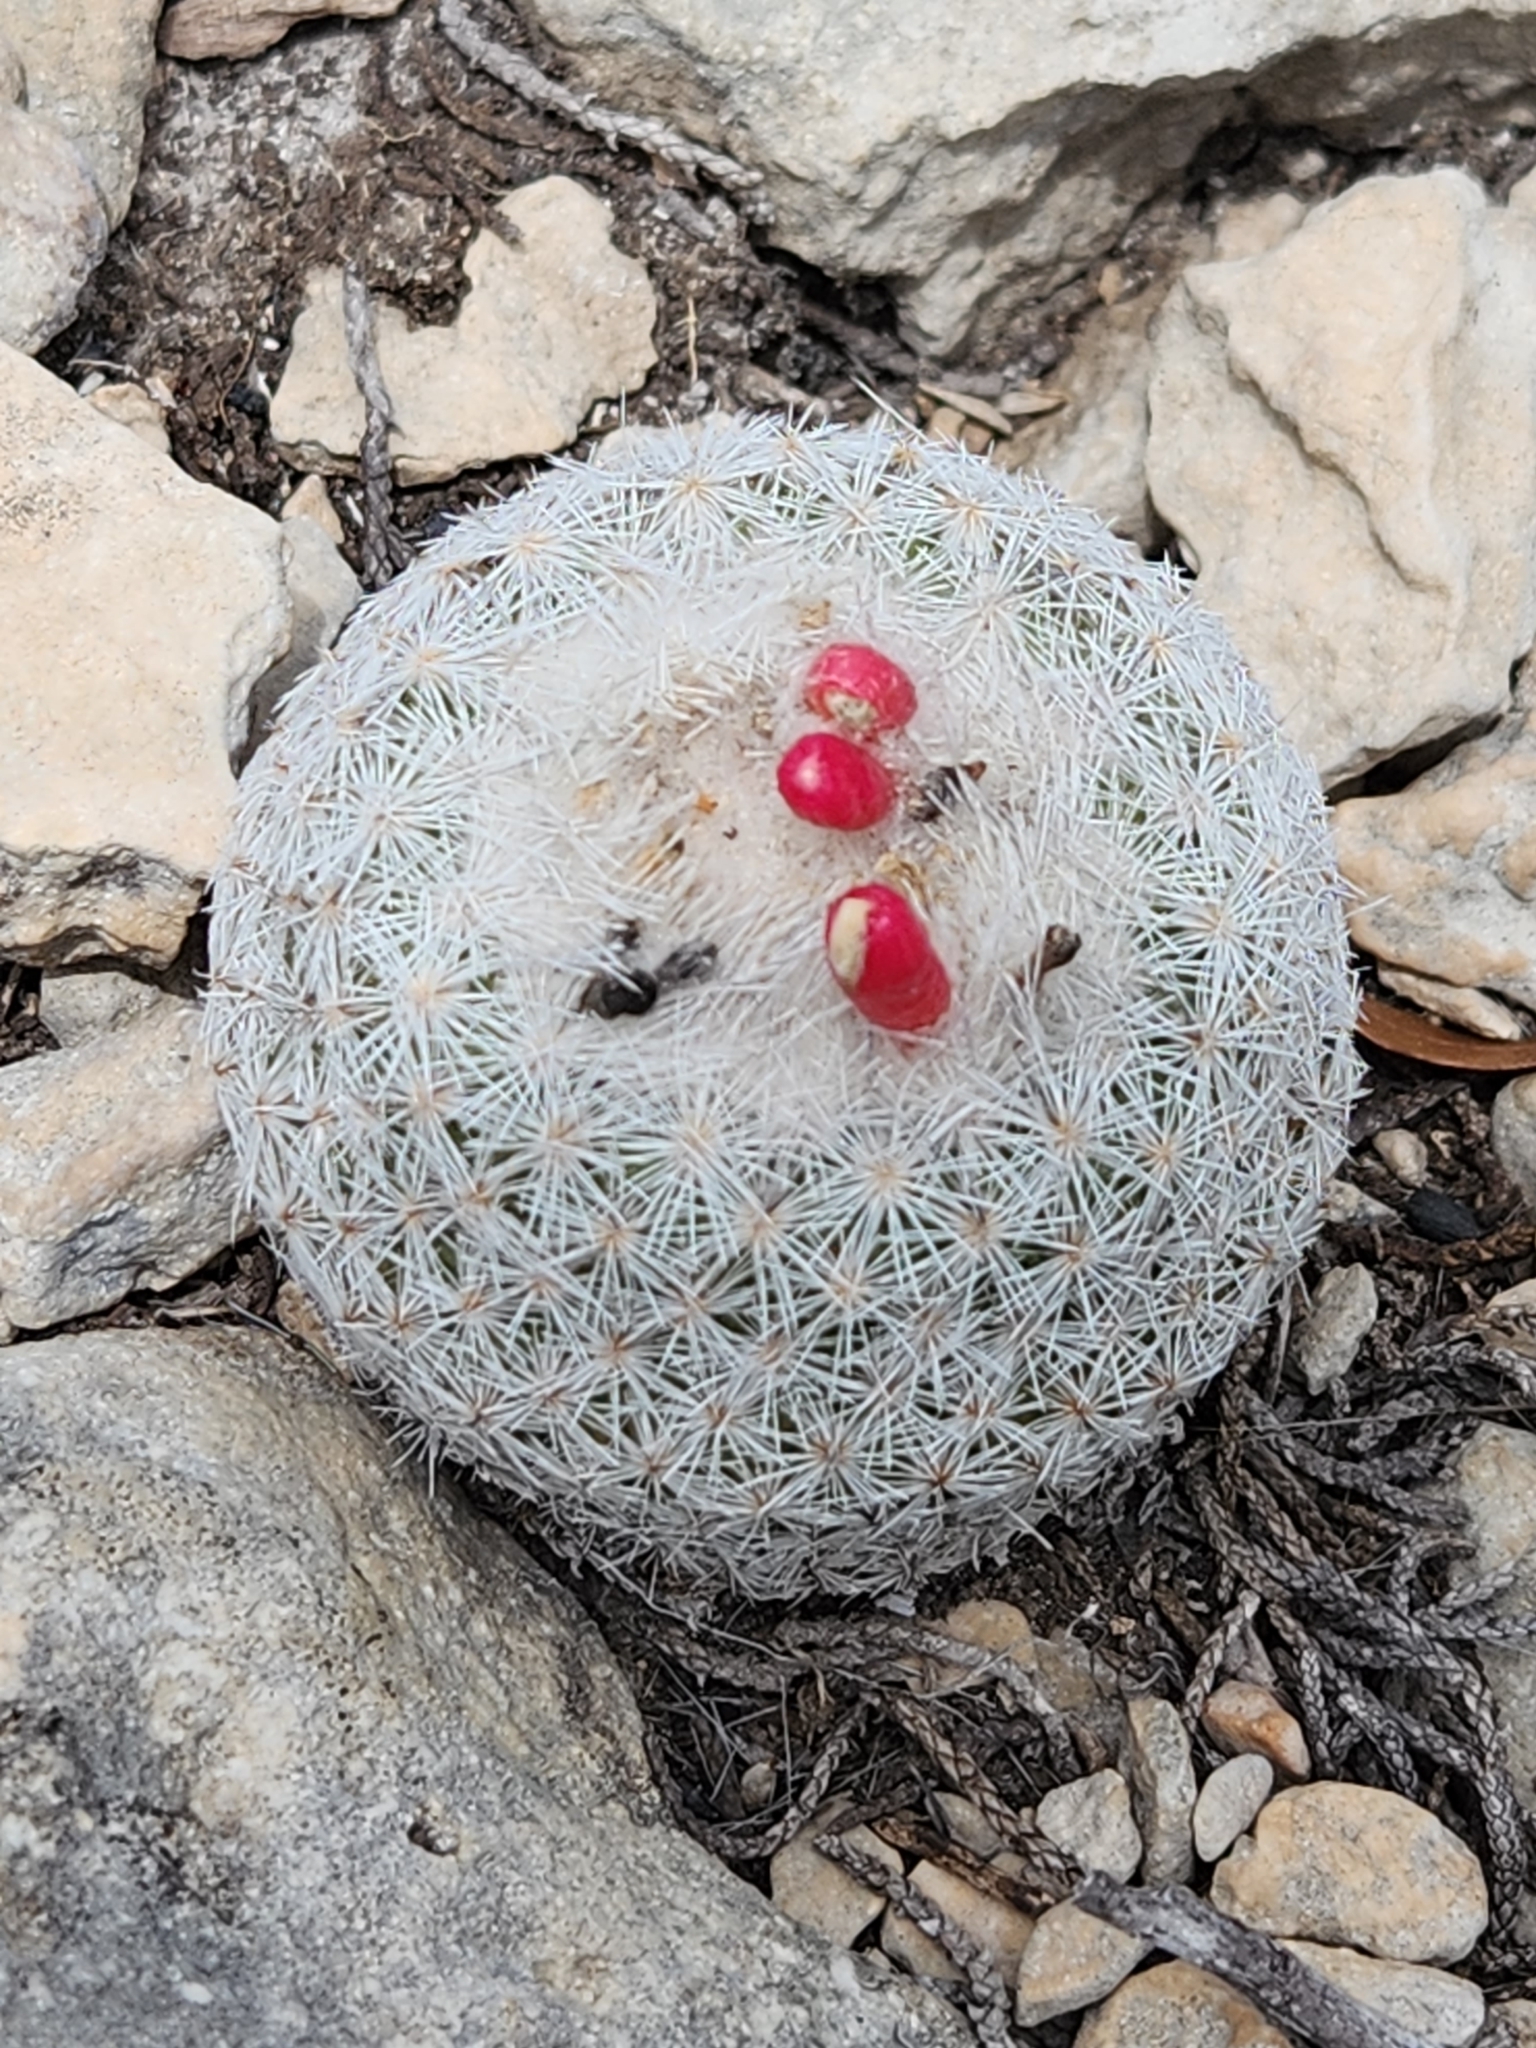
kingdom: Plantae
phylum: Tracheophyta
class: Magnoliopsida
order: Caryophyllales
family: Cactaceae
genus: Epithelantha
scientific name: Epithelantha micromeris
